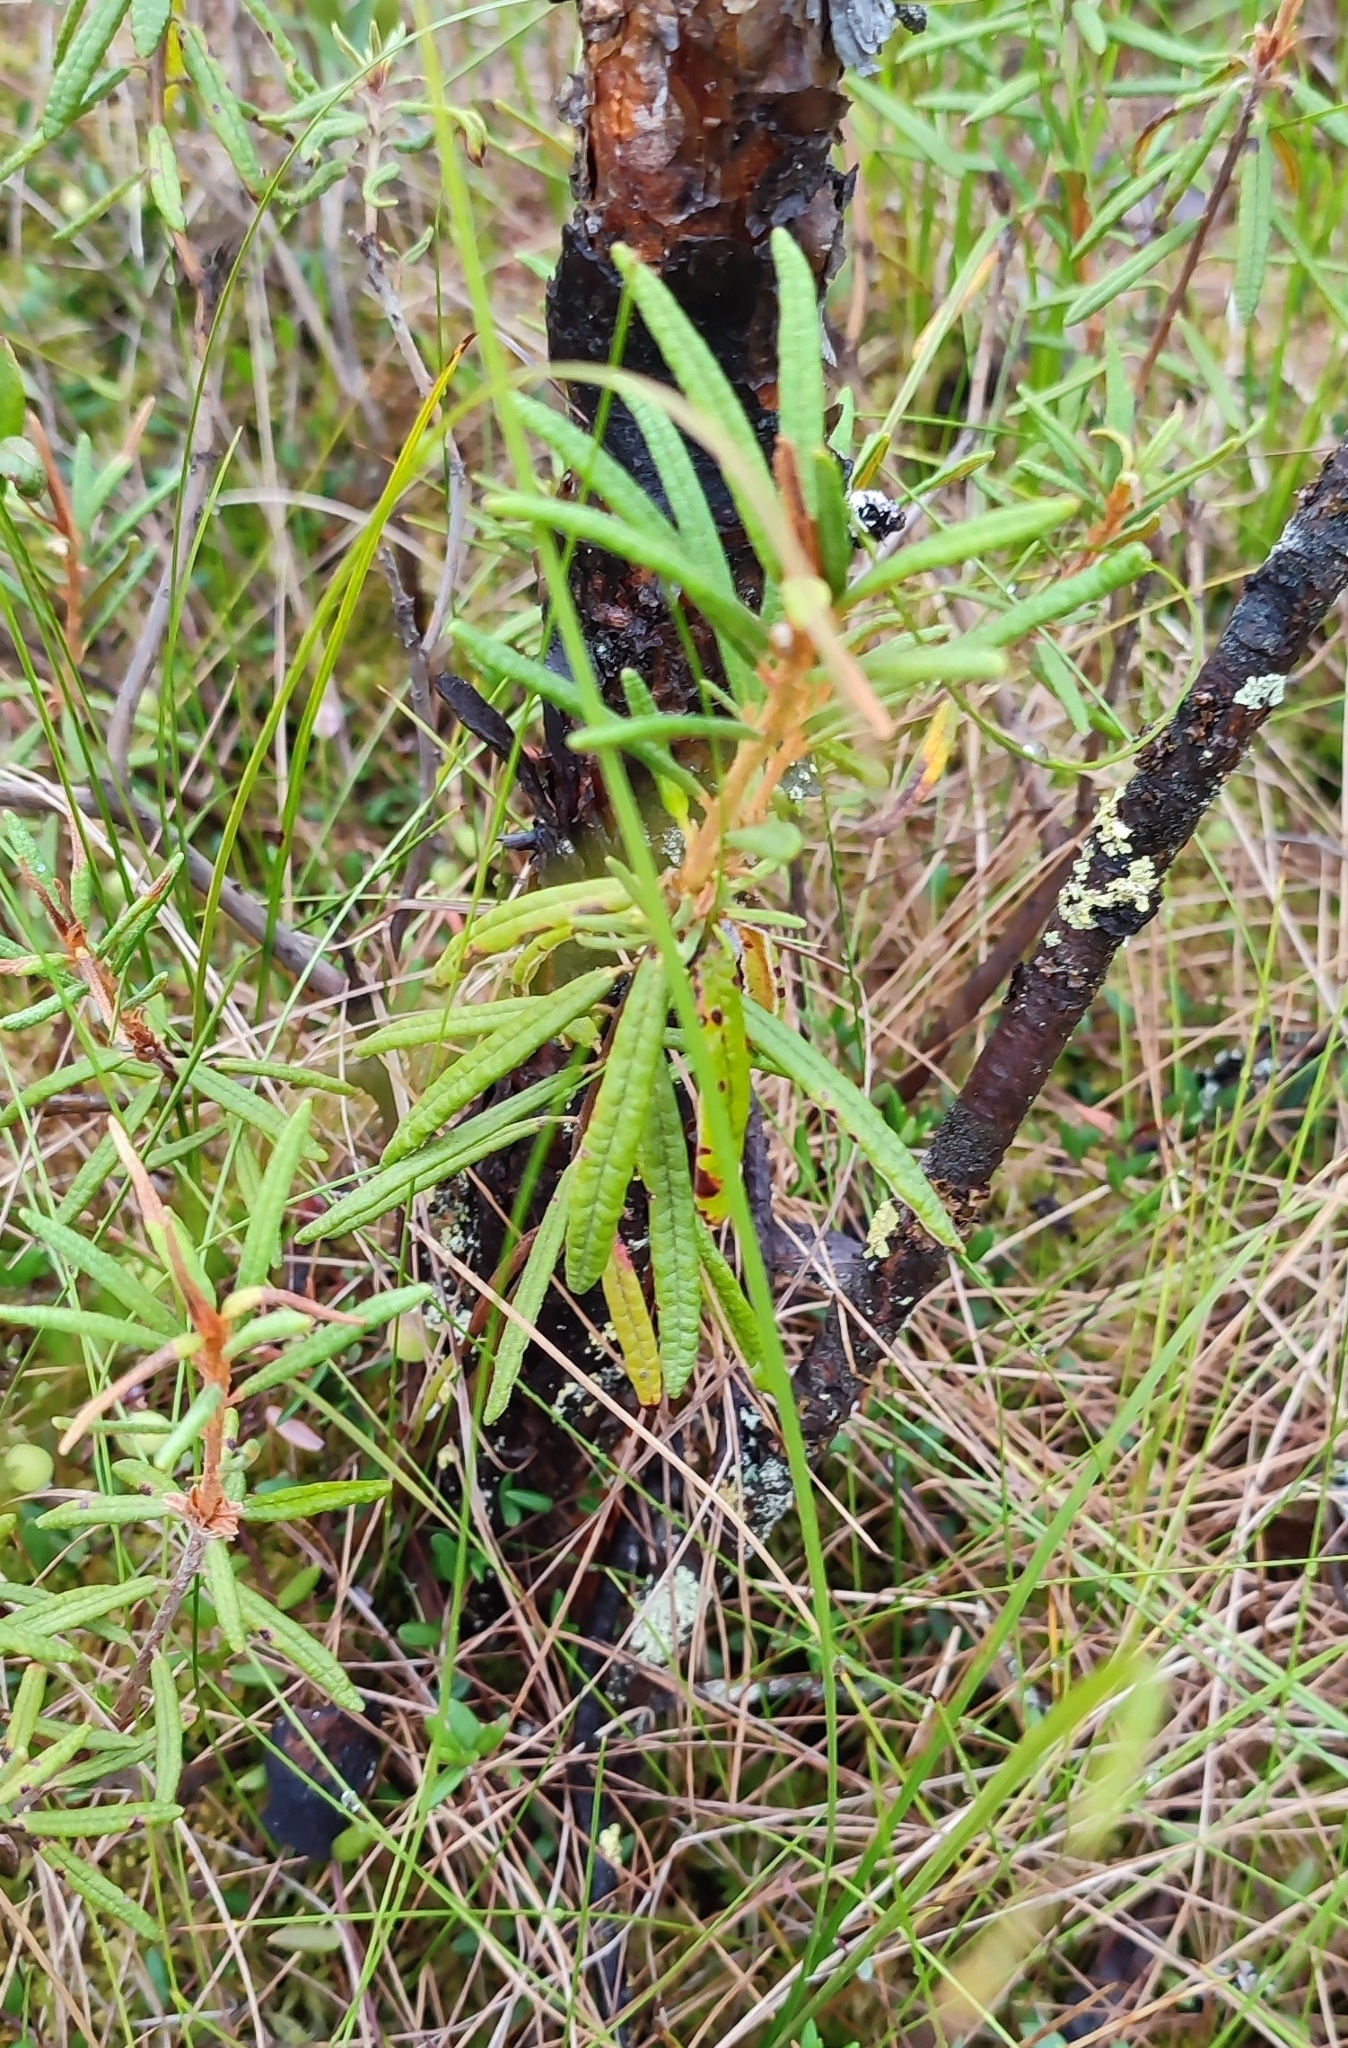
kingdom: Plantae
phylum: Tracheophyta
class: Magnoliopsida
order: Ericales
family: Ericaceae
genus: Rhododendron
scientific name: Rhododendron tomentosum
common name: Marsh labrador tea
